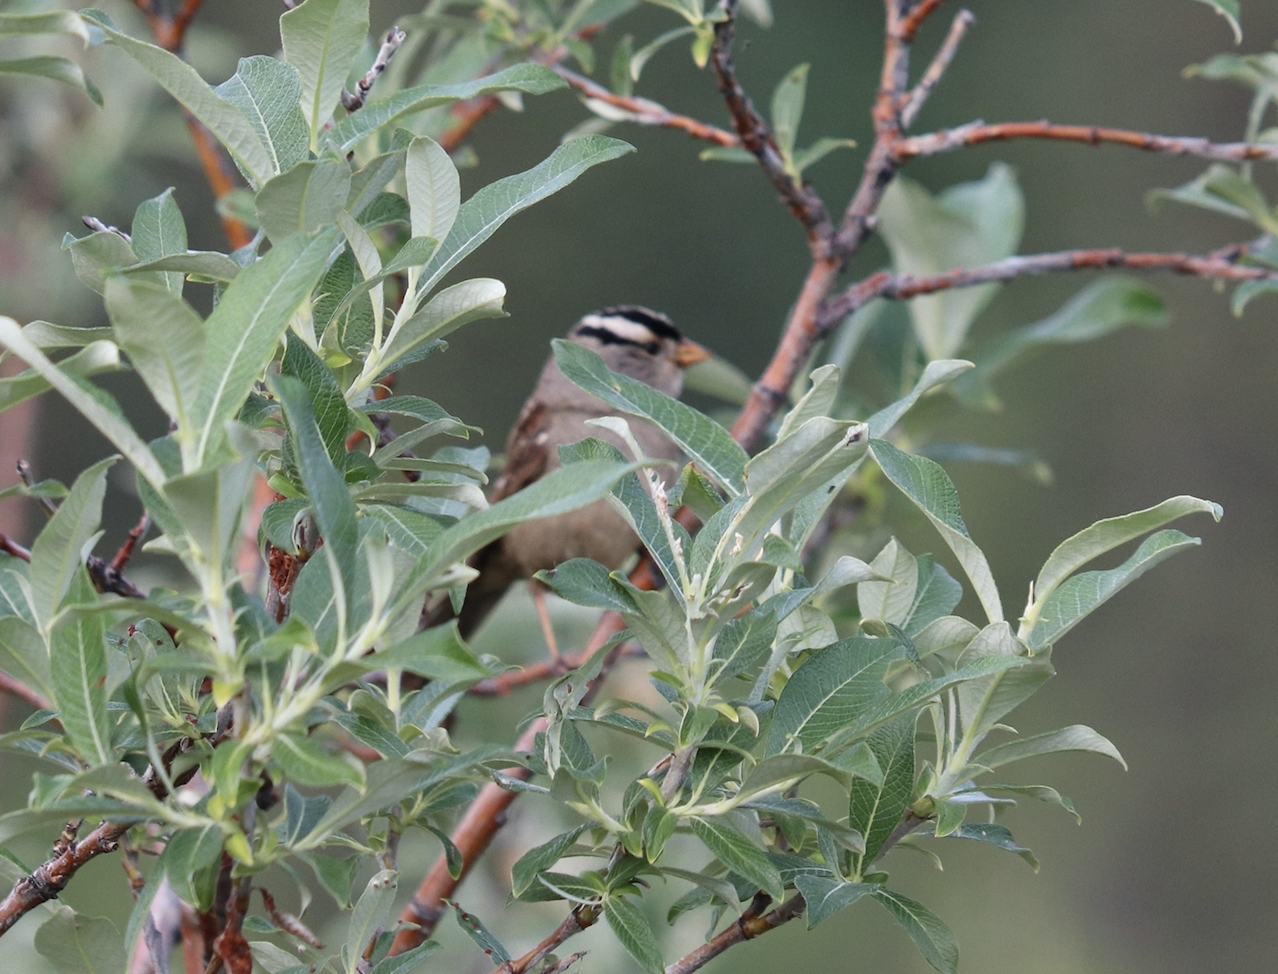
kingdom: Animalia
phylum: Chordata
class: Aves
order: Passeriformes
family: Passerellidae
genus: Zonotrichia
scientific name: Zonotrichia leucophrys
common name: White-crowned sparrow
